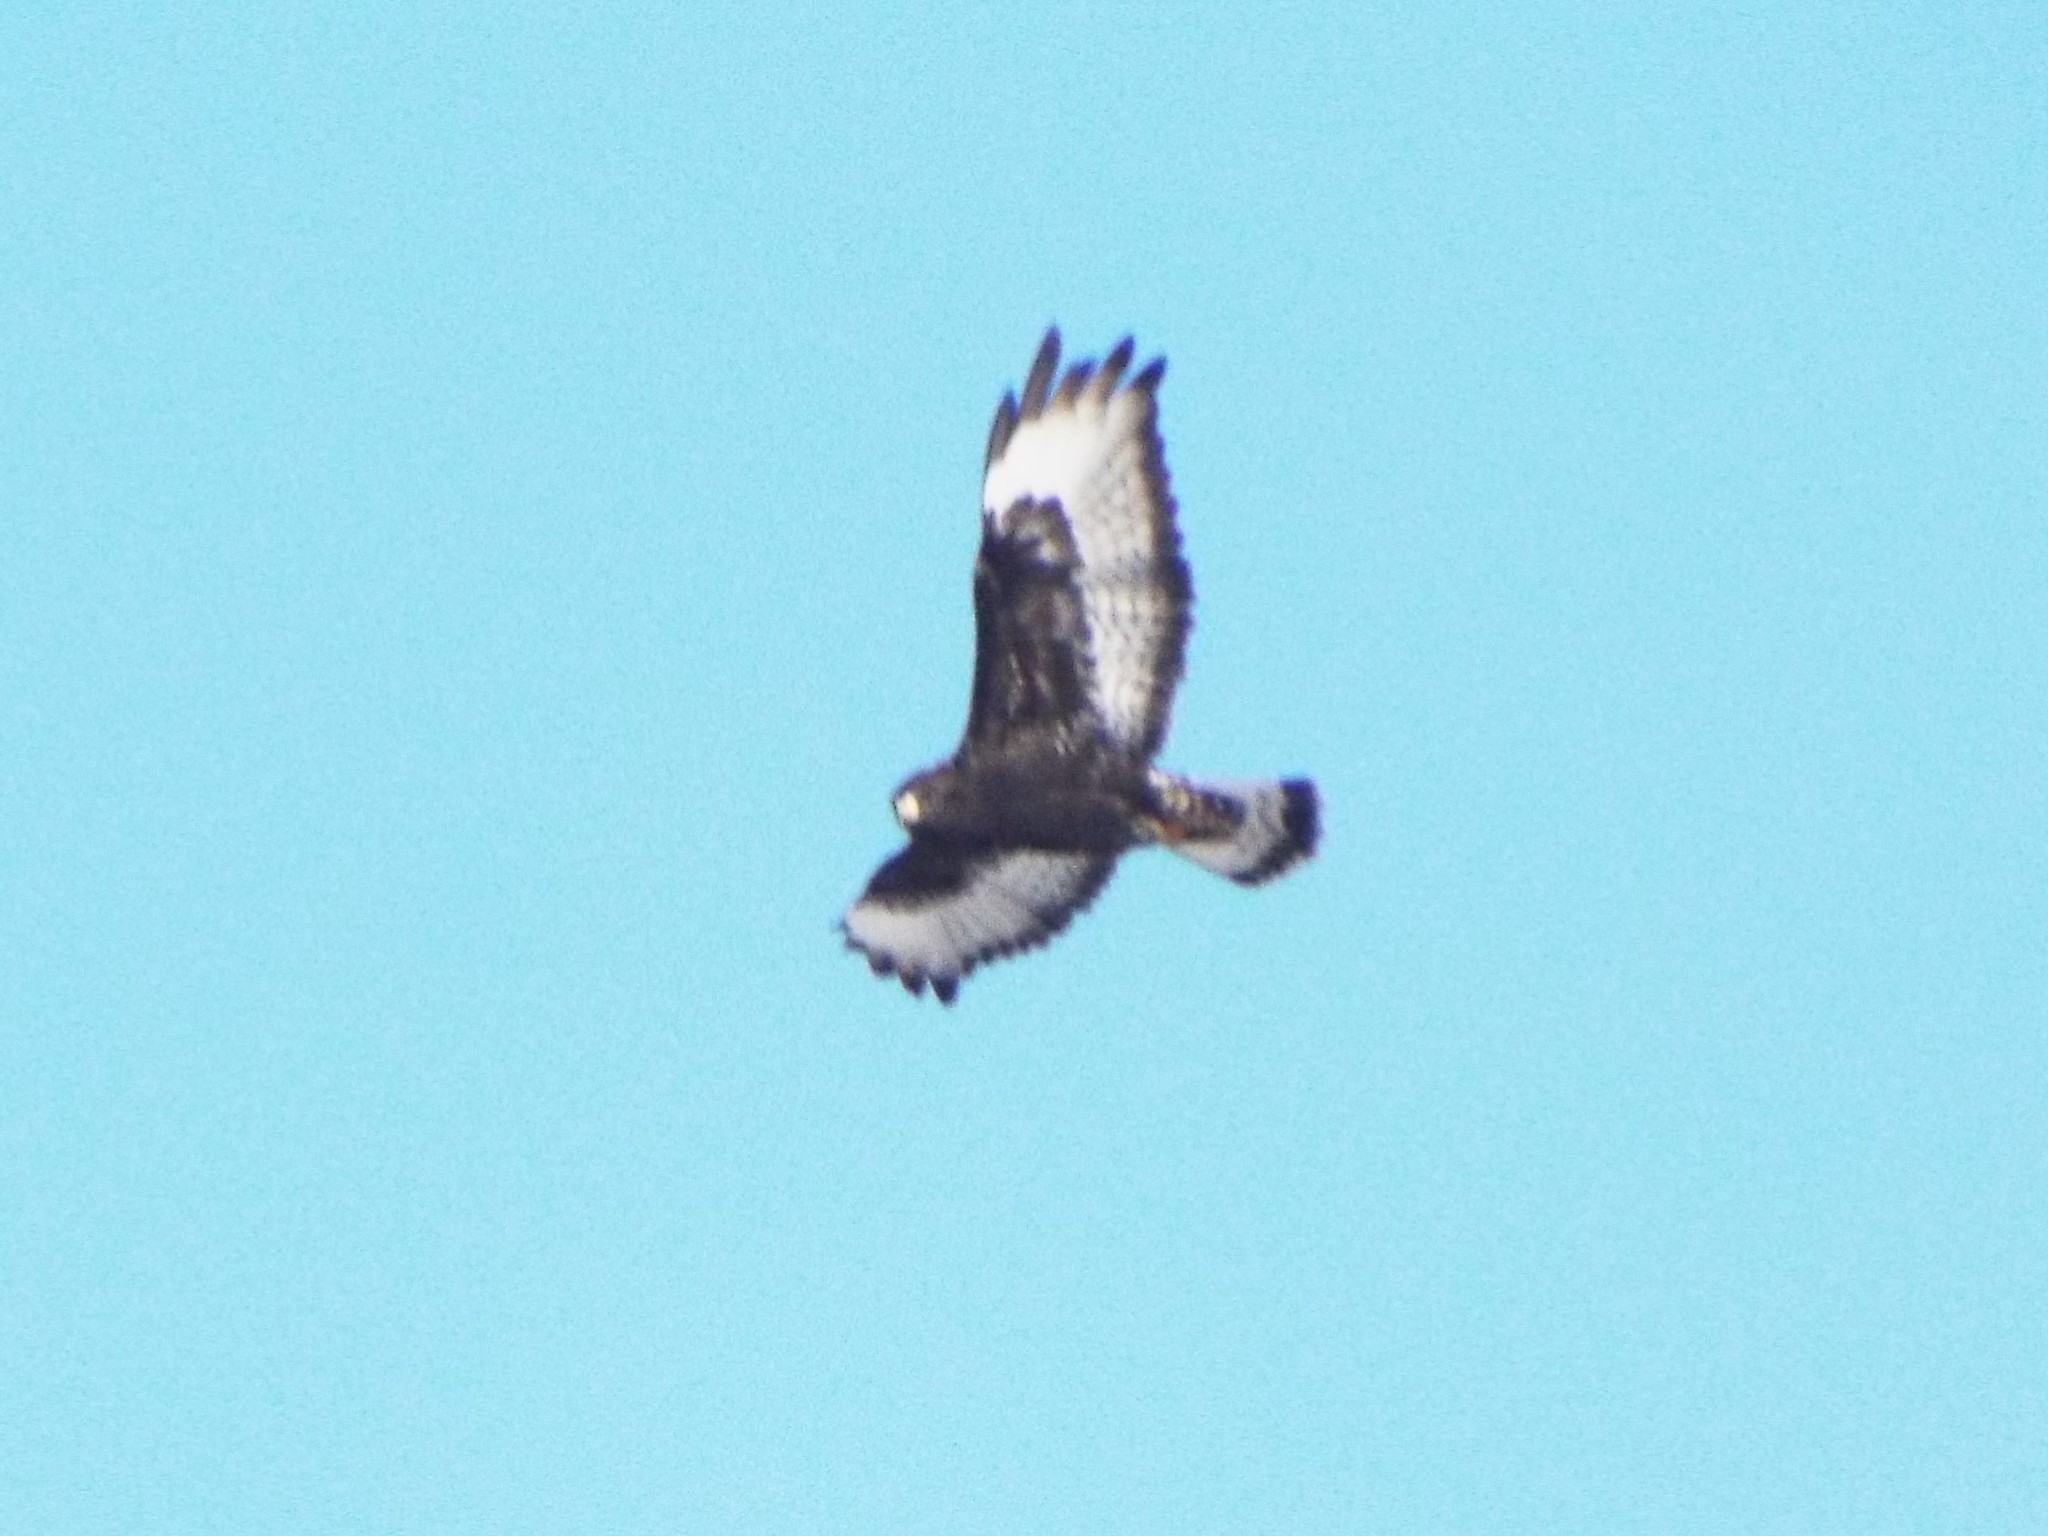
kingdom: Animalia
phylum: Chordata
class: Aves
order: Accipitriformes
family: Accipitridae
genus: Buteo
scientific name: Buteo lagopus
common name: Rough-legged buzzard
